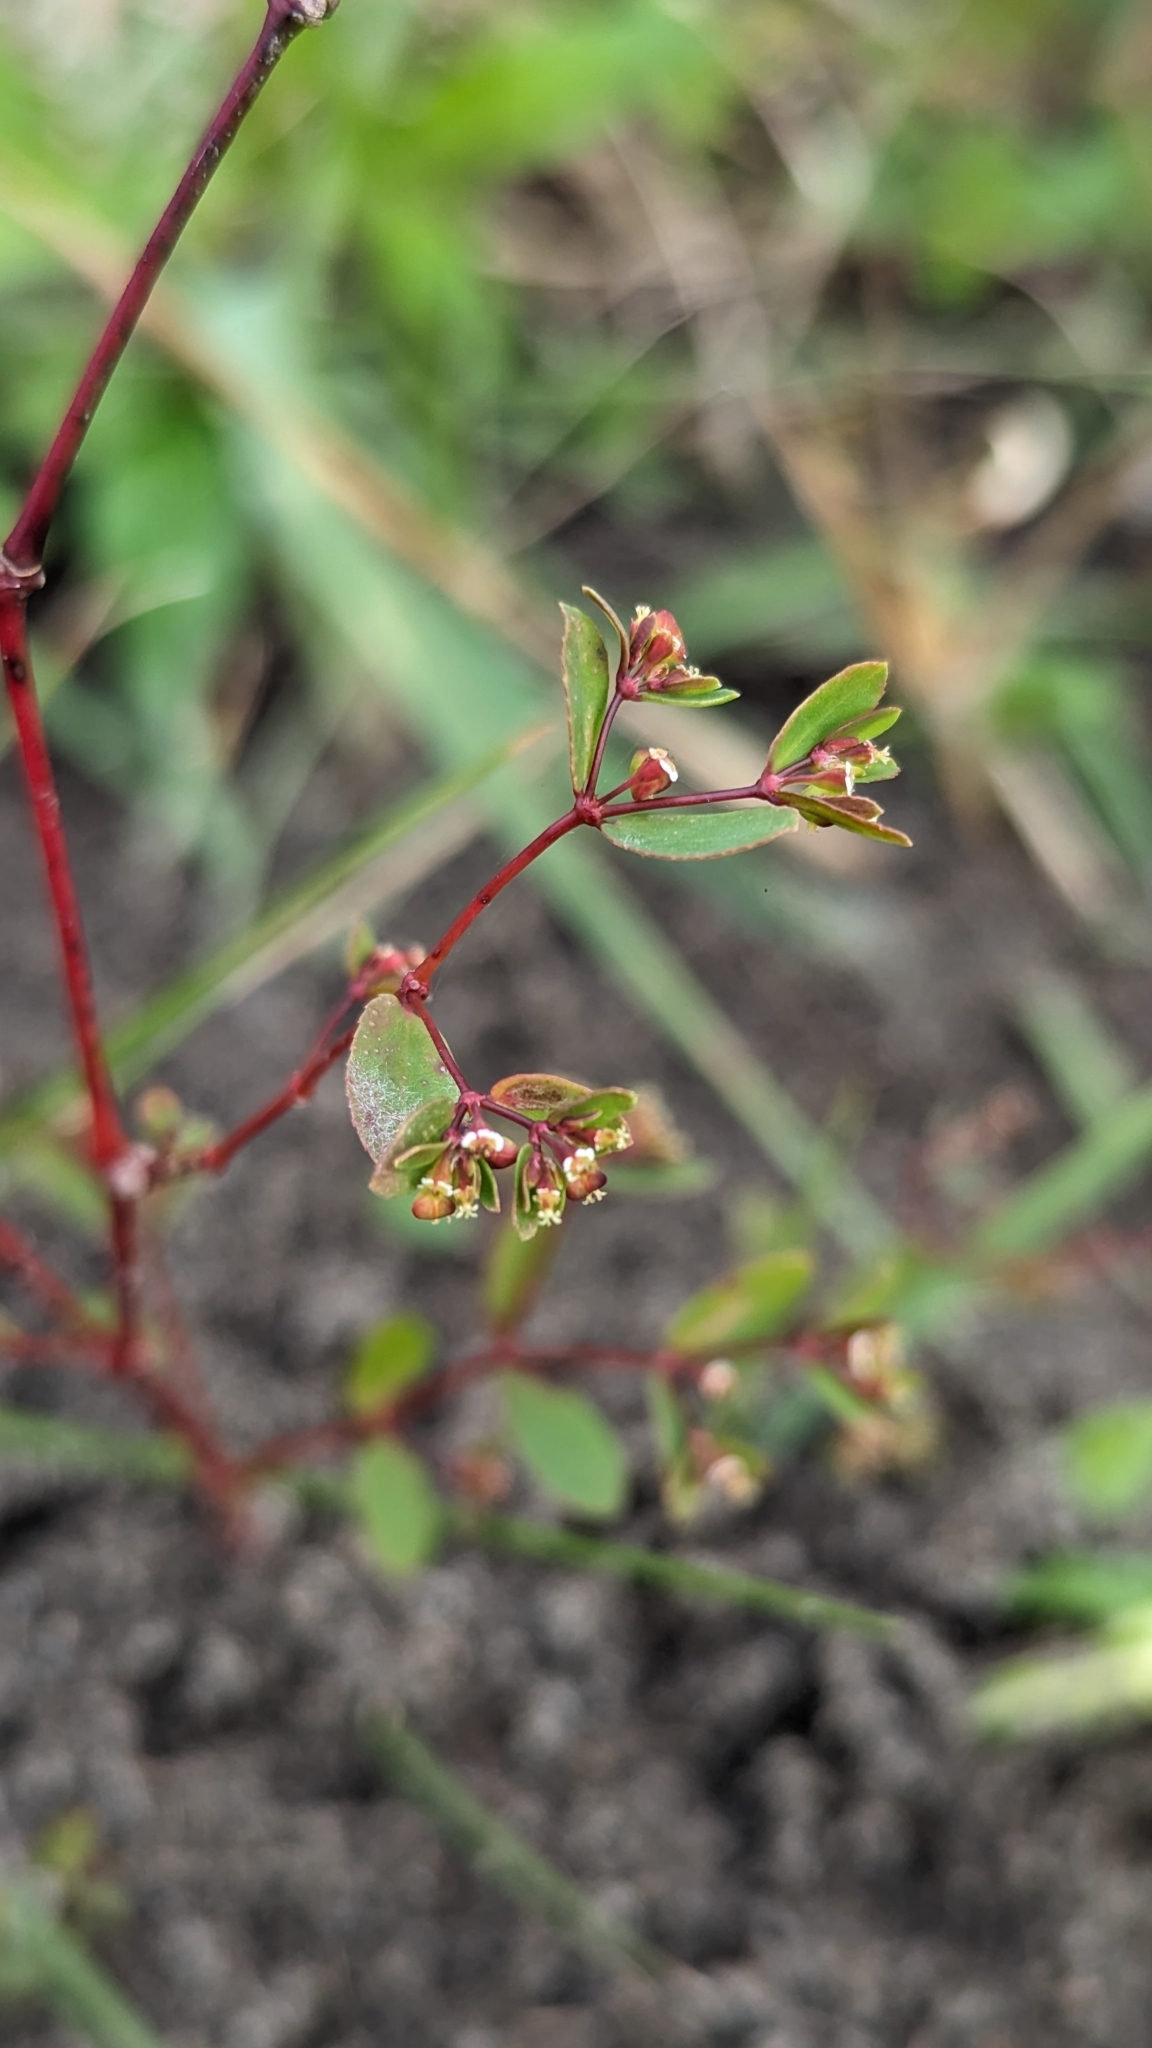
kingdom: Plantae
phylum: Tracheophyta
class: Magnoliopsida
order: Malpighiales
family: Euphorbiaceae
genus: Euphorbia
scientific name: Euphorbia hypericifolia
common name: Graceful sandmat
